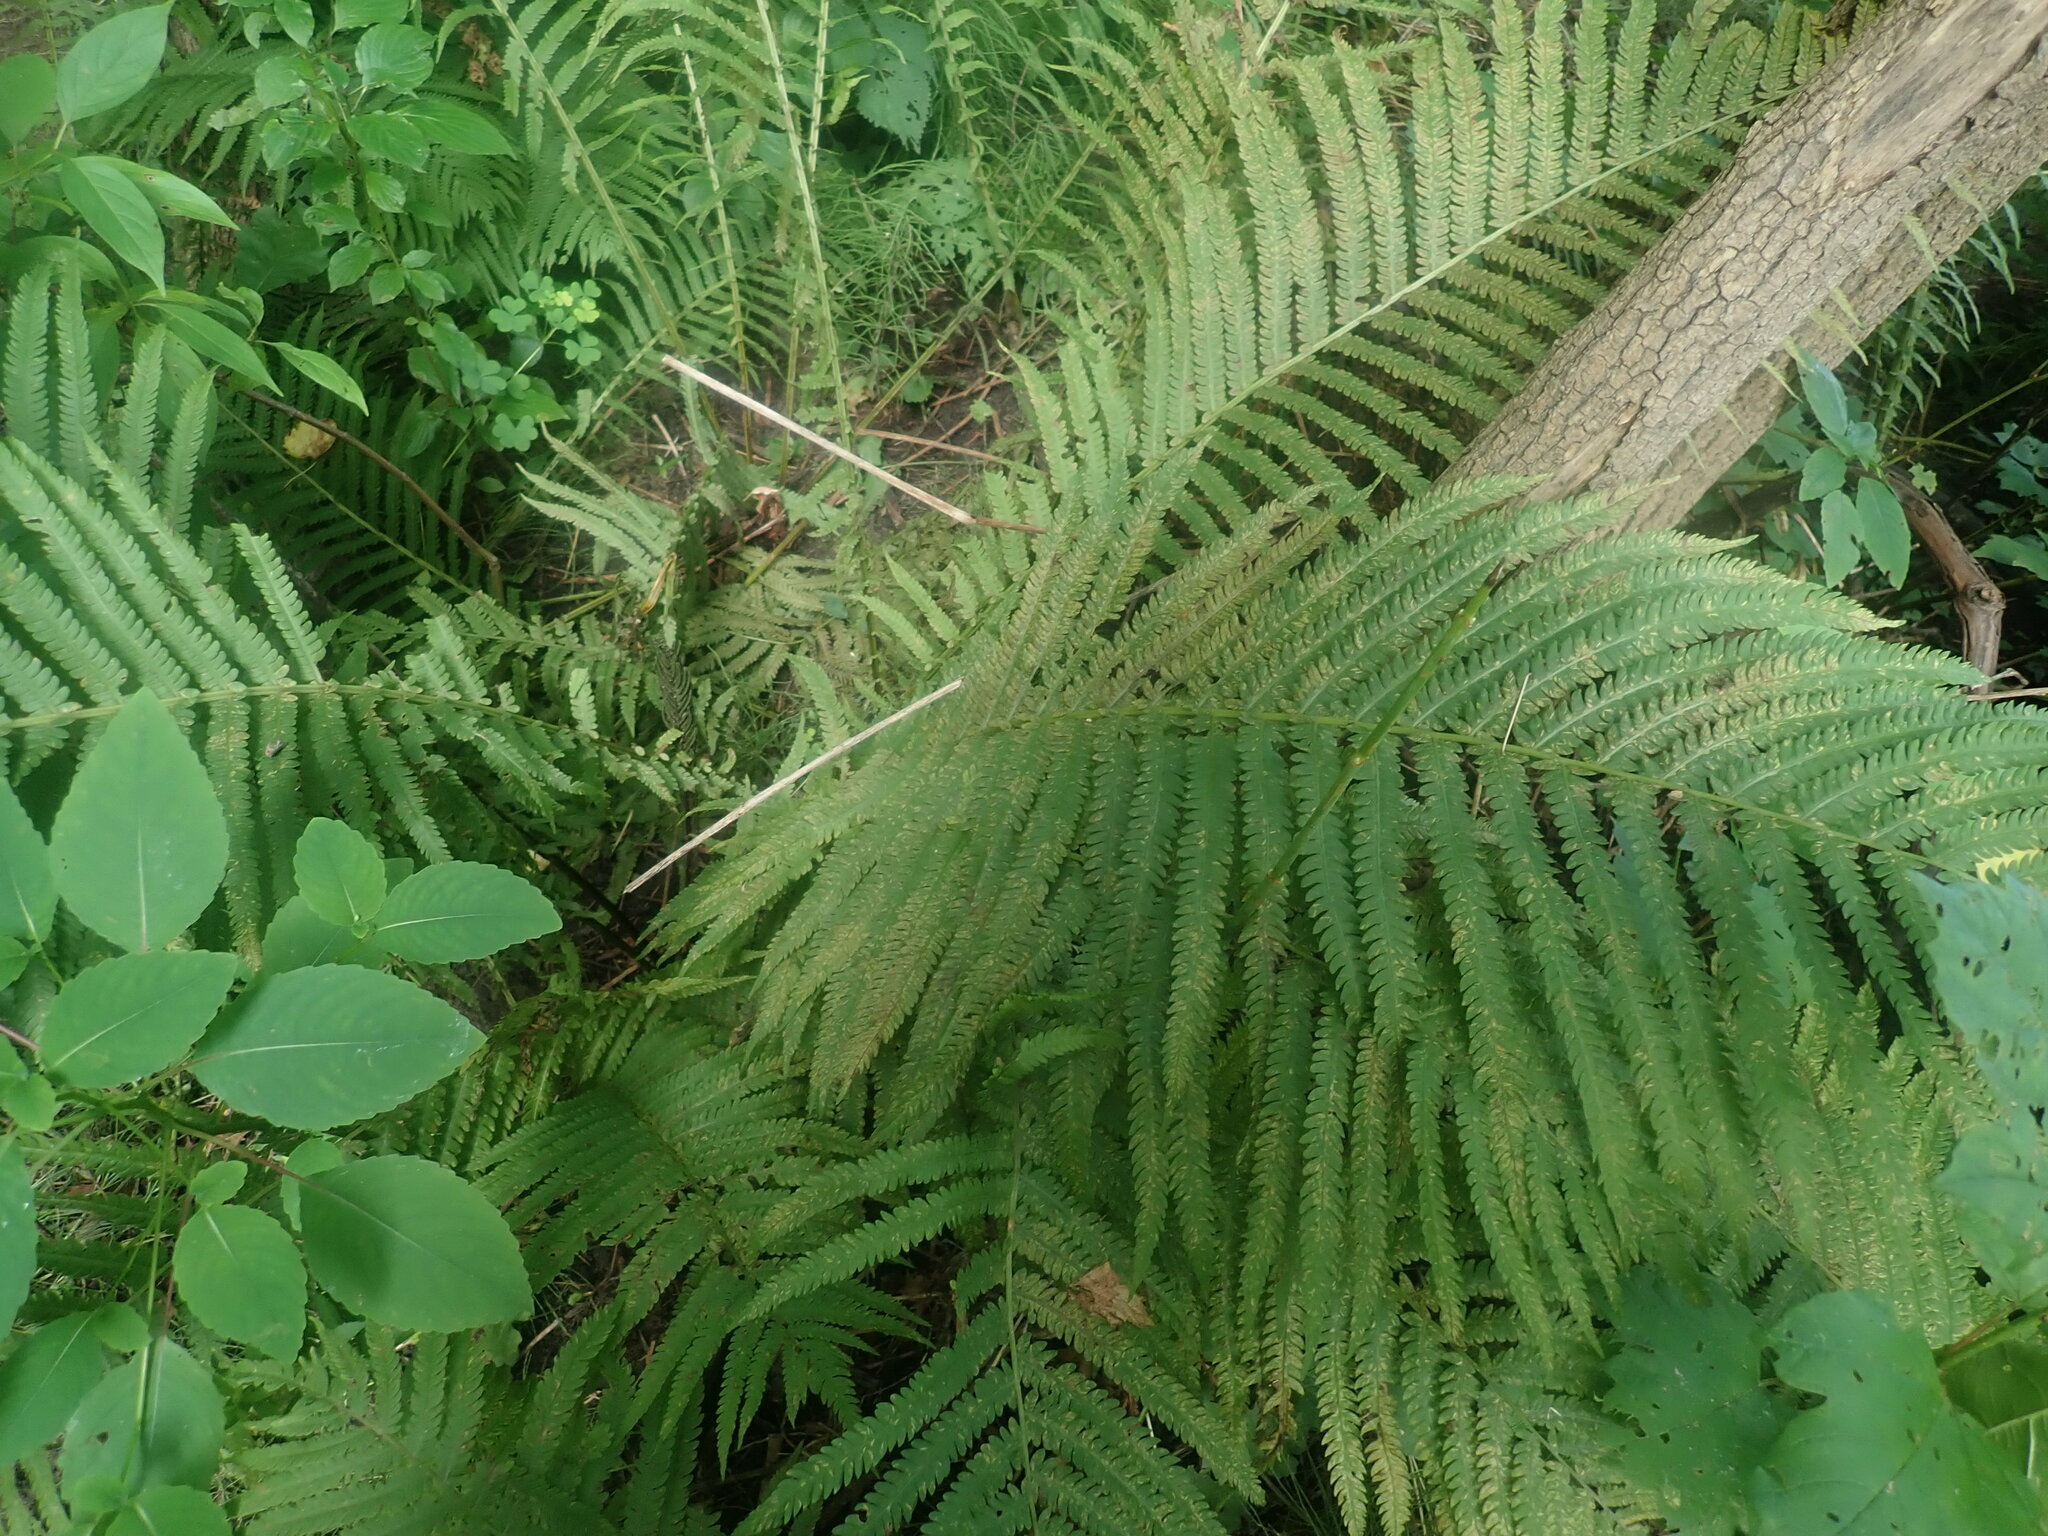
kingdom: Plantae
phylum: Tracheophyta
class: Polypodiopsida
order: Polypodiales
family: Onocleaceae
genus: Matteuccia
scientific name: Matteuccia struthiopteris
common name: Ostrich fern
